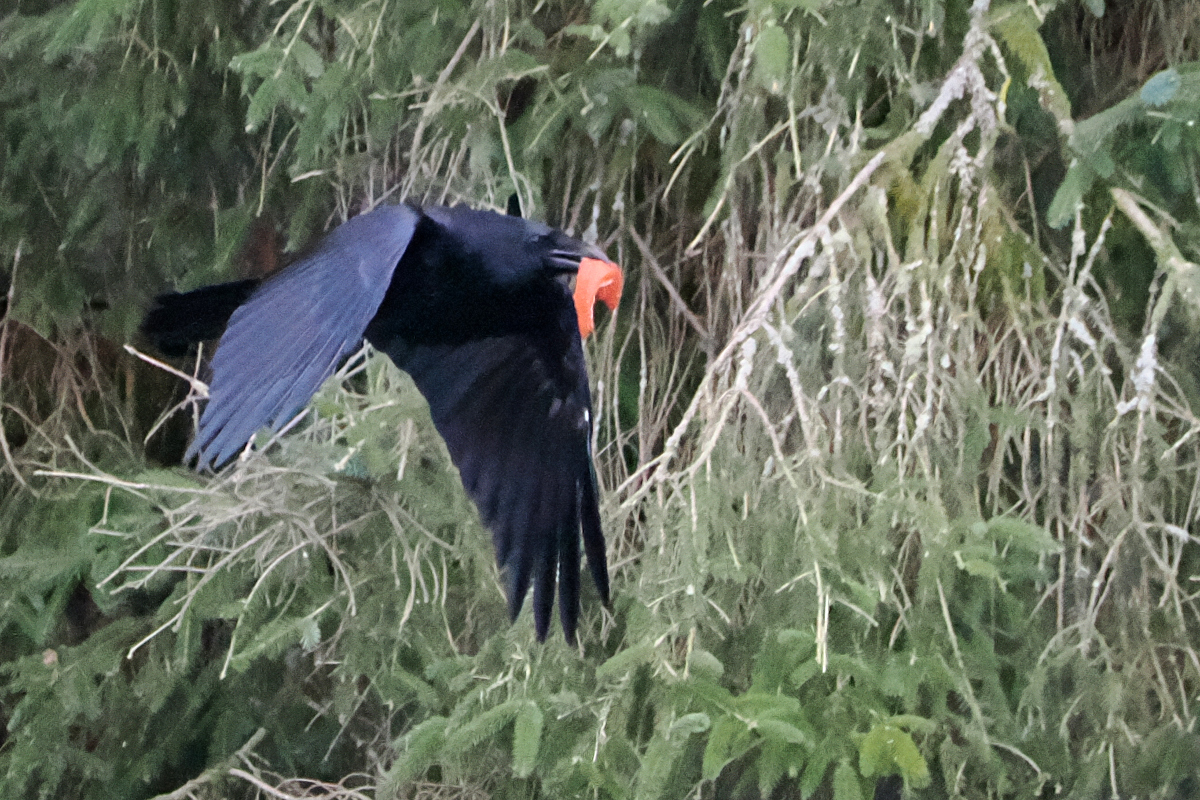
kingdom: Animalia
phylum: Chordata
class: Aves
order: Passeriformes
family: Corvidae
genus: Corvus
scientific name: Corvus corax
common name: Common raven
